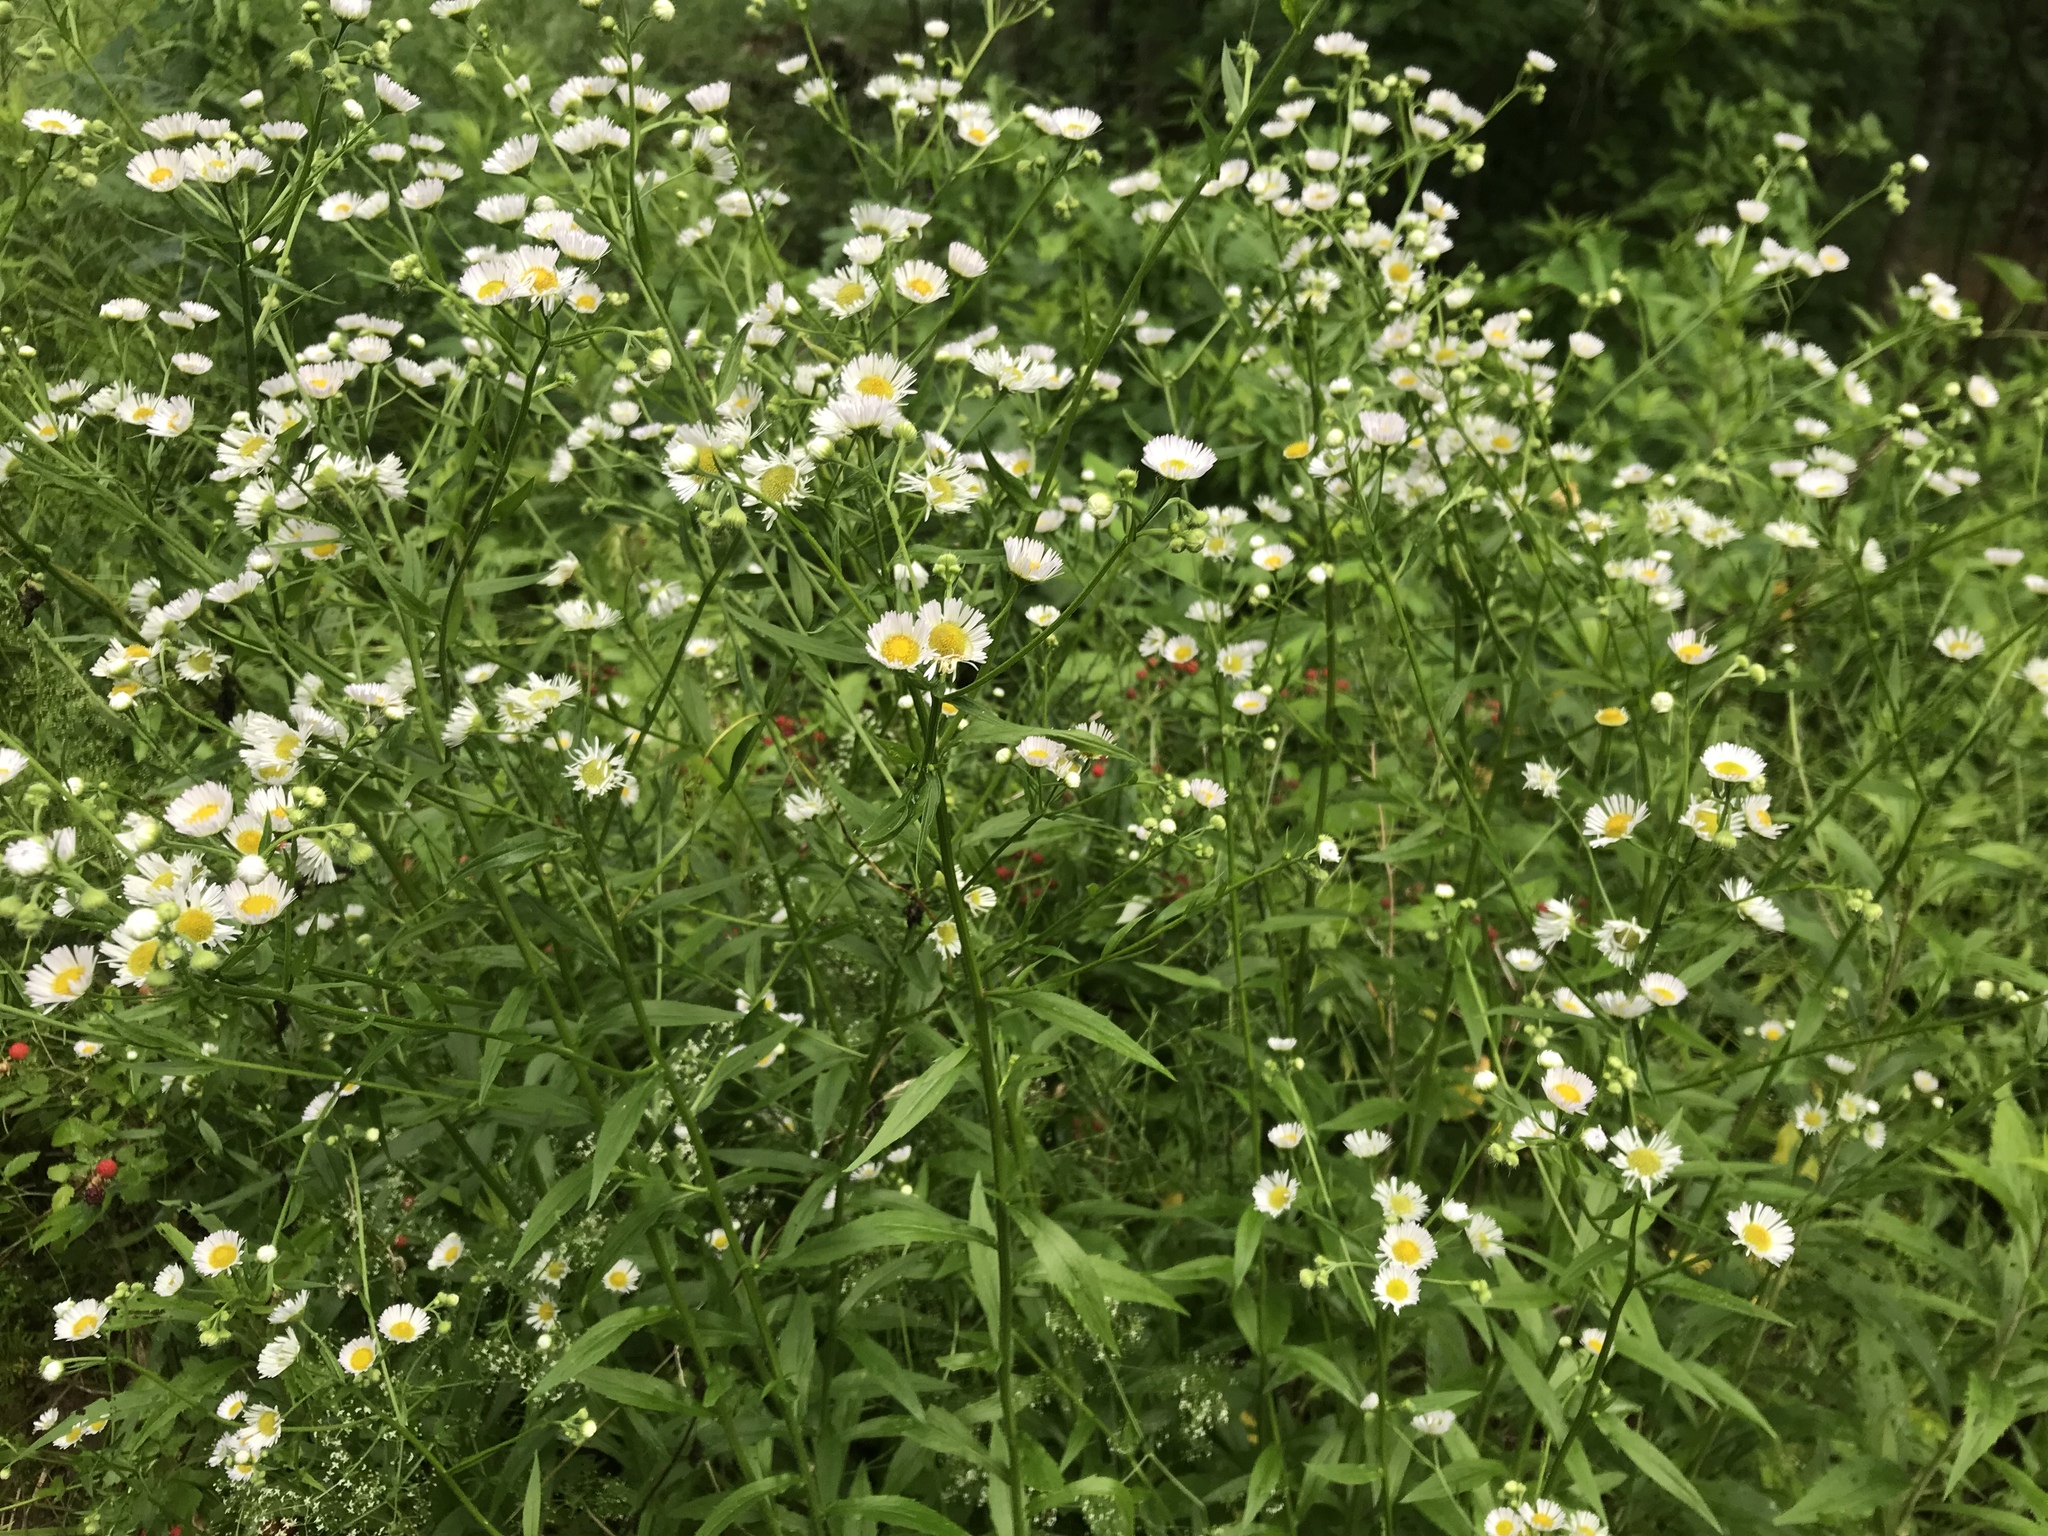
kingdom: Plantae
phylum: Tracheophyta
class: Magnoliopsida
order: Asterales
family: Asteraceae
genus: Erigeron
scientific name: Erigeron annuus
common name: Tall fleabane
